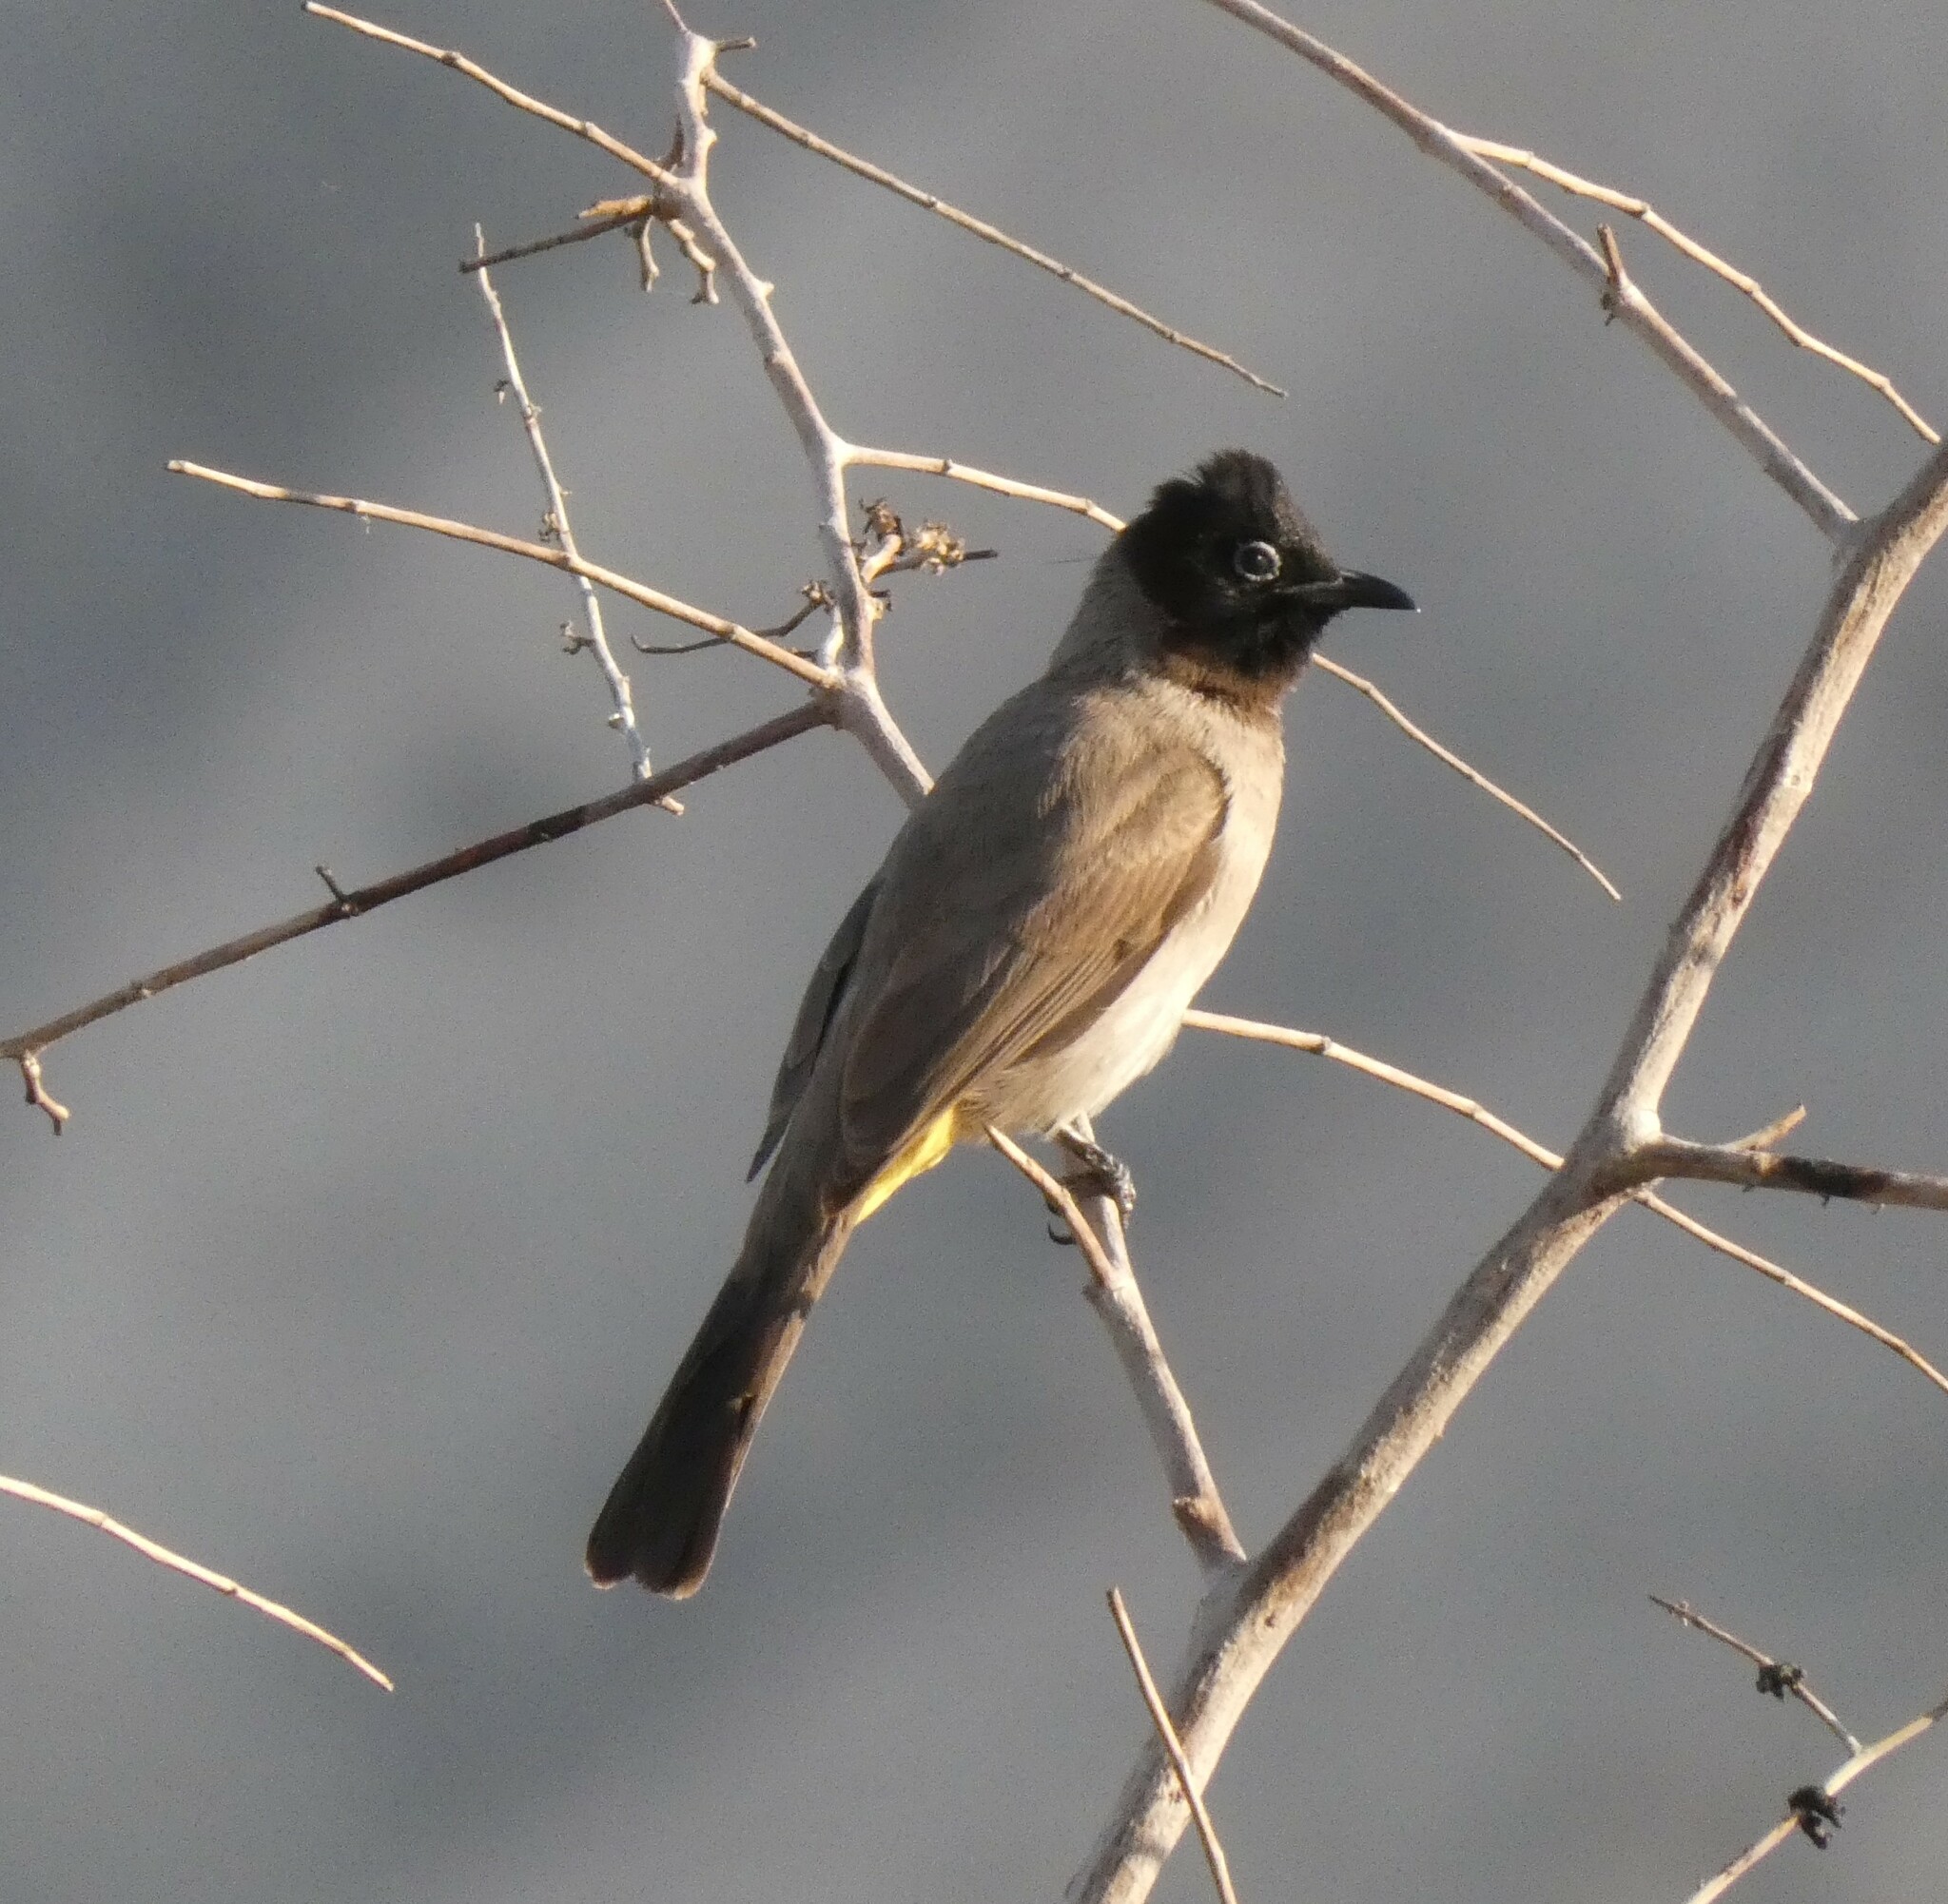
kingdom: Animalia
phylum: Chordata
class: Aves
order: Passeriformes
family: Pycnonotidae
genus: Pycnonotus
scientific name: Pycnonotus xanthopygos
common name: White-spectacled bulbul
